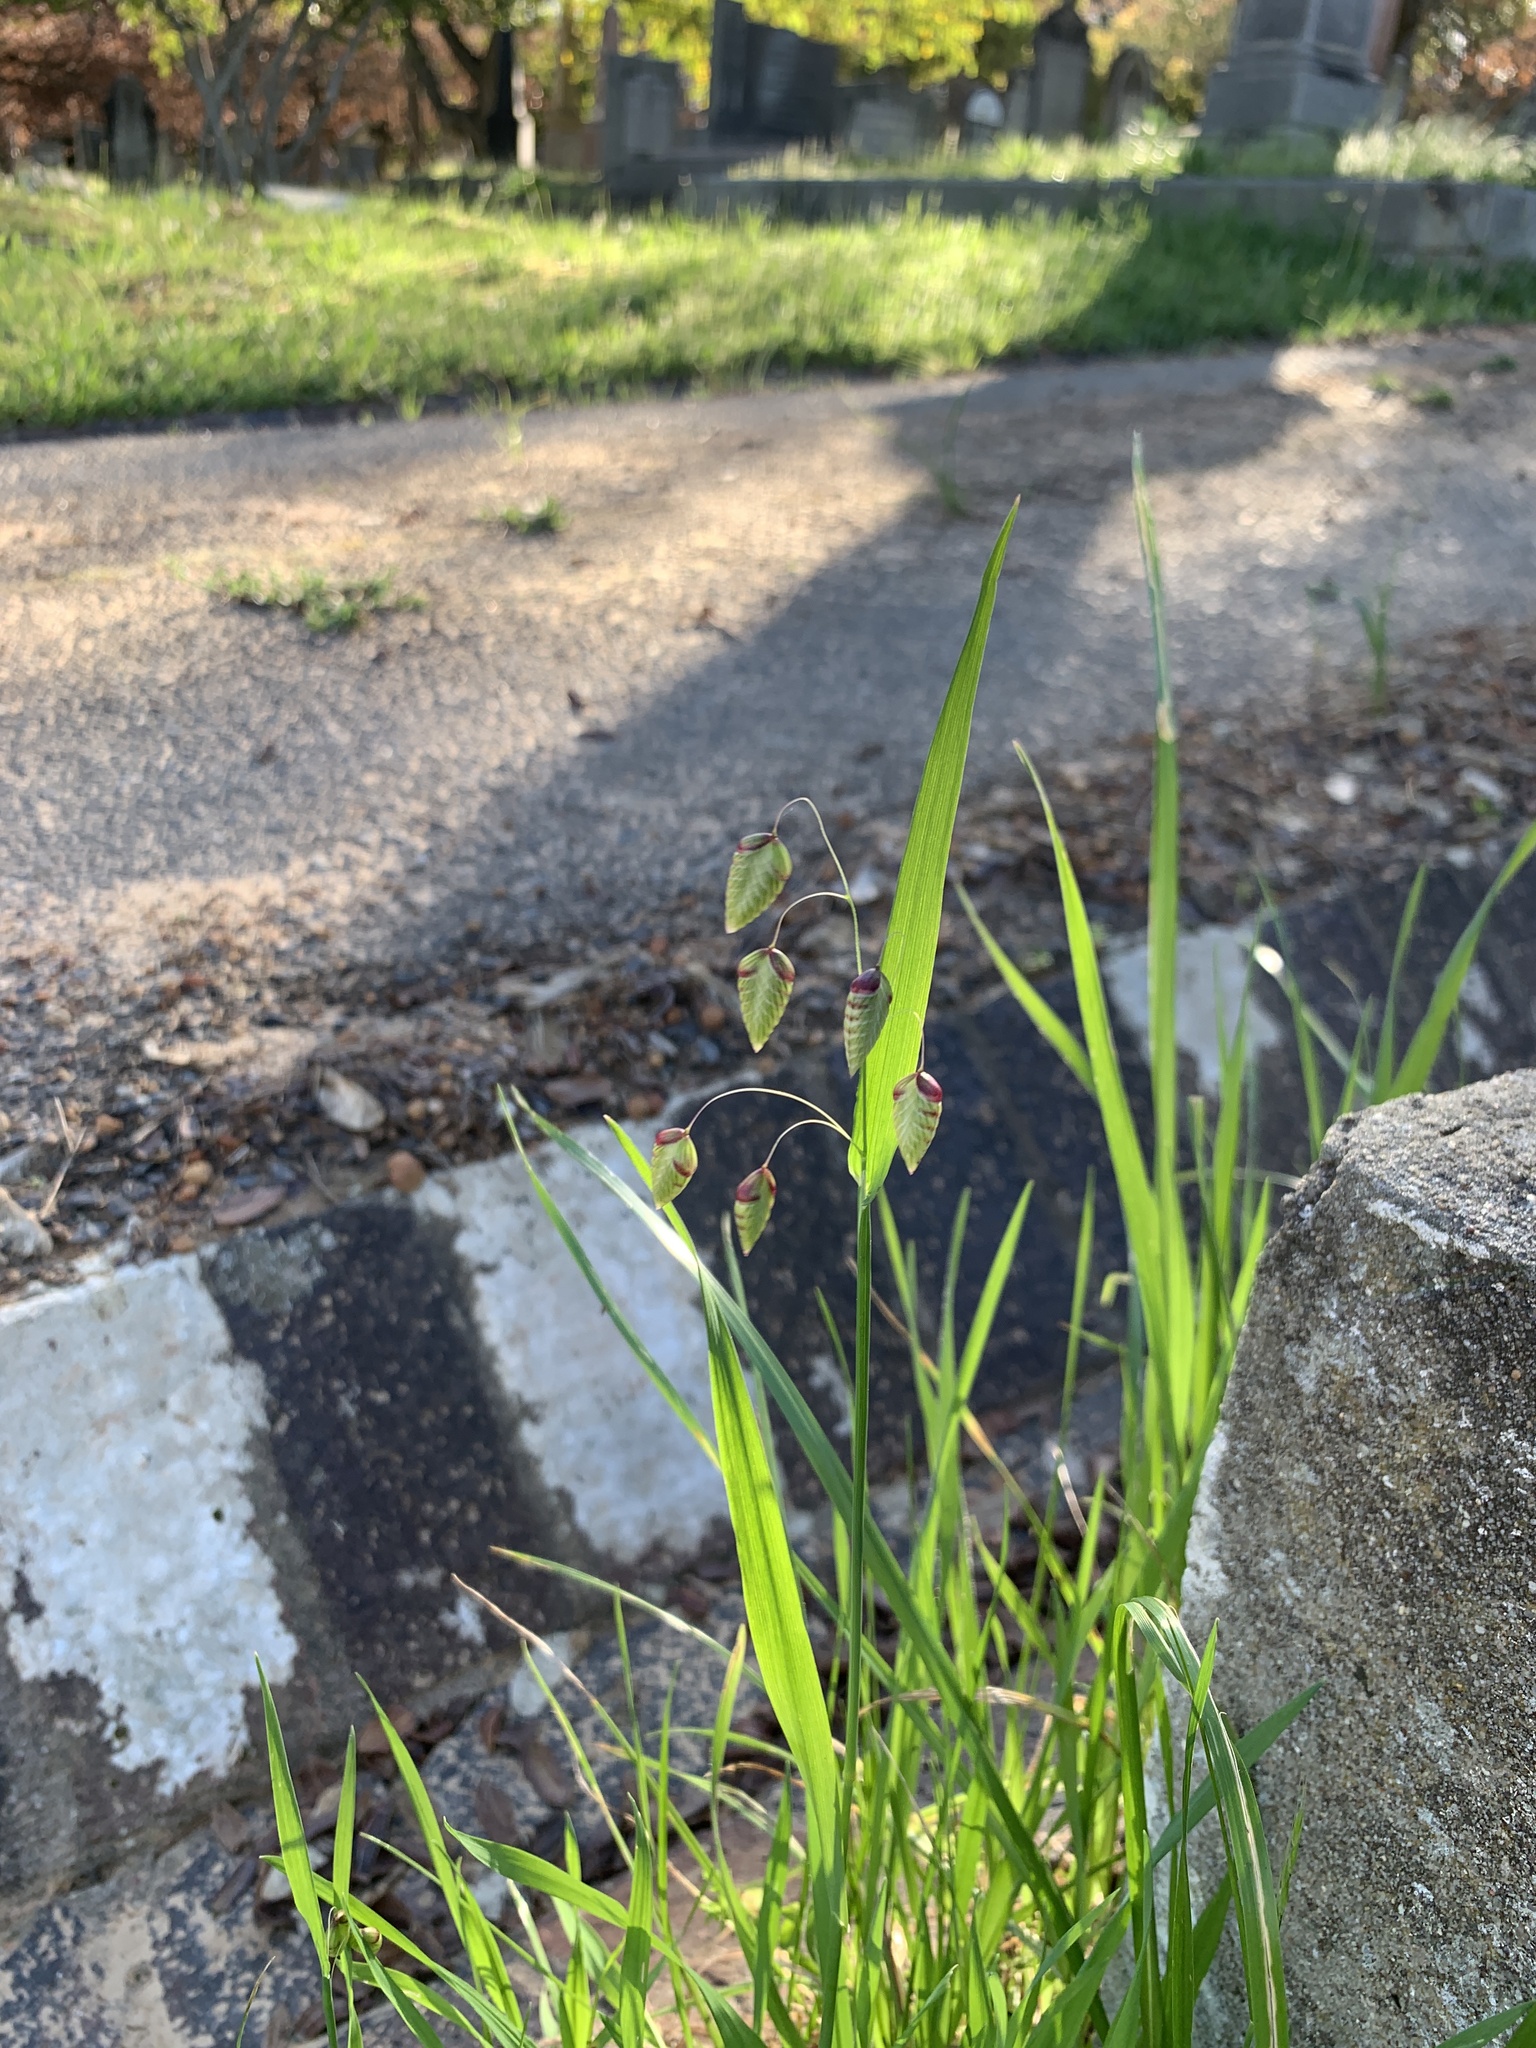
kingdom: Plantae
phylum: Tracheophyta
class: Liliopsida
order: Poales
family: Poaceae
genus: Briza
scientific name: Briza maxima
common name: Big quakinggrass
